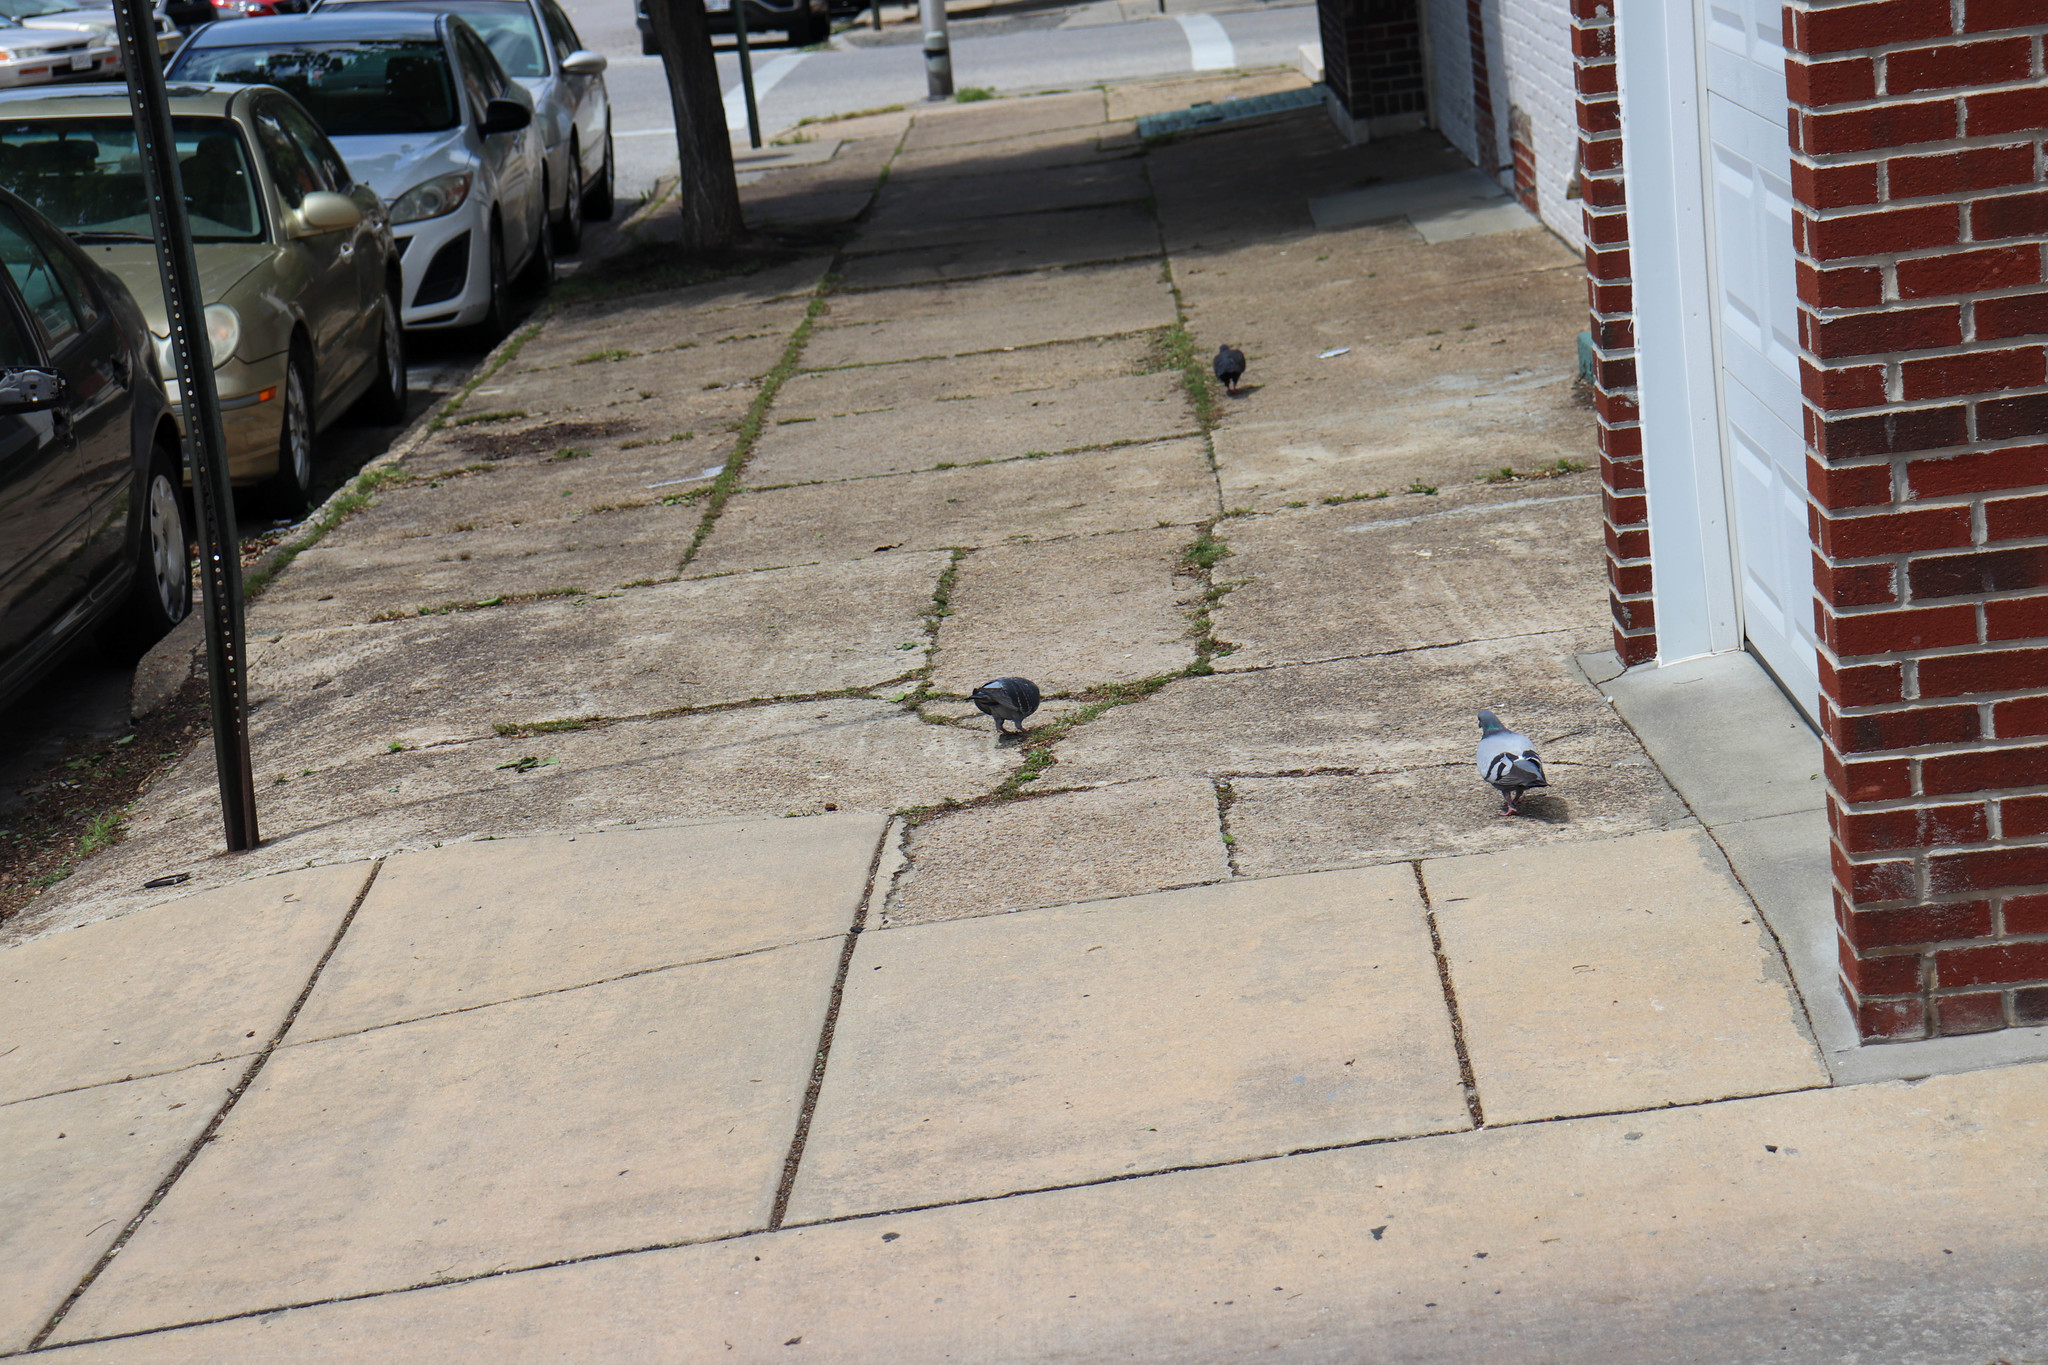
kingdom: Animalia
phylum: Chordata
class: Aves
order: Columbiformes
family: Columbidae
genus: Columba
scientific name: Columba livia
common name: Rock pigeon
